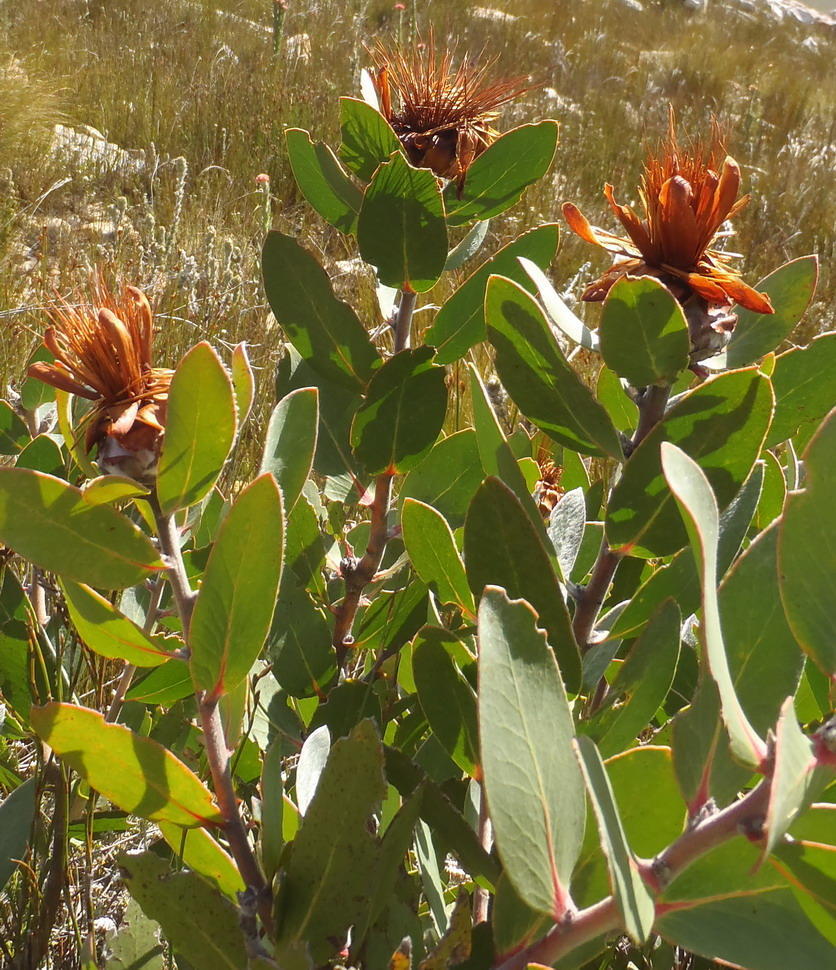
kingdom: Plantae
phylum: Tracheophyta
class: Magnoliopsida
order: Proteales
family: Proteaceae
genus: Protea
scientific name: Protea punctata
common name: Water sugarbush
